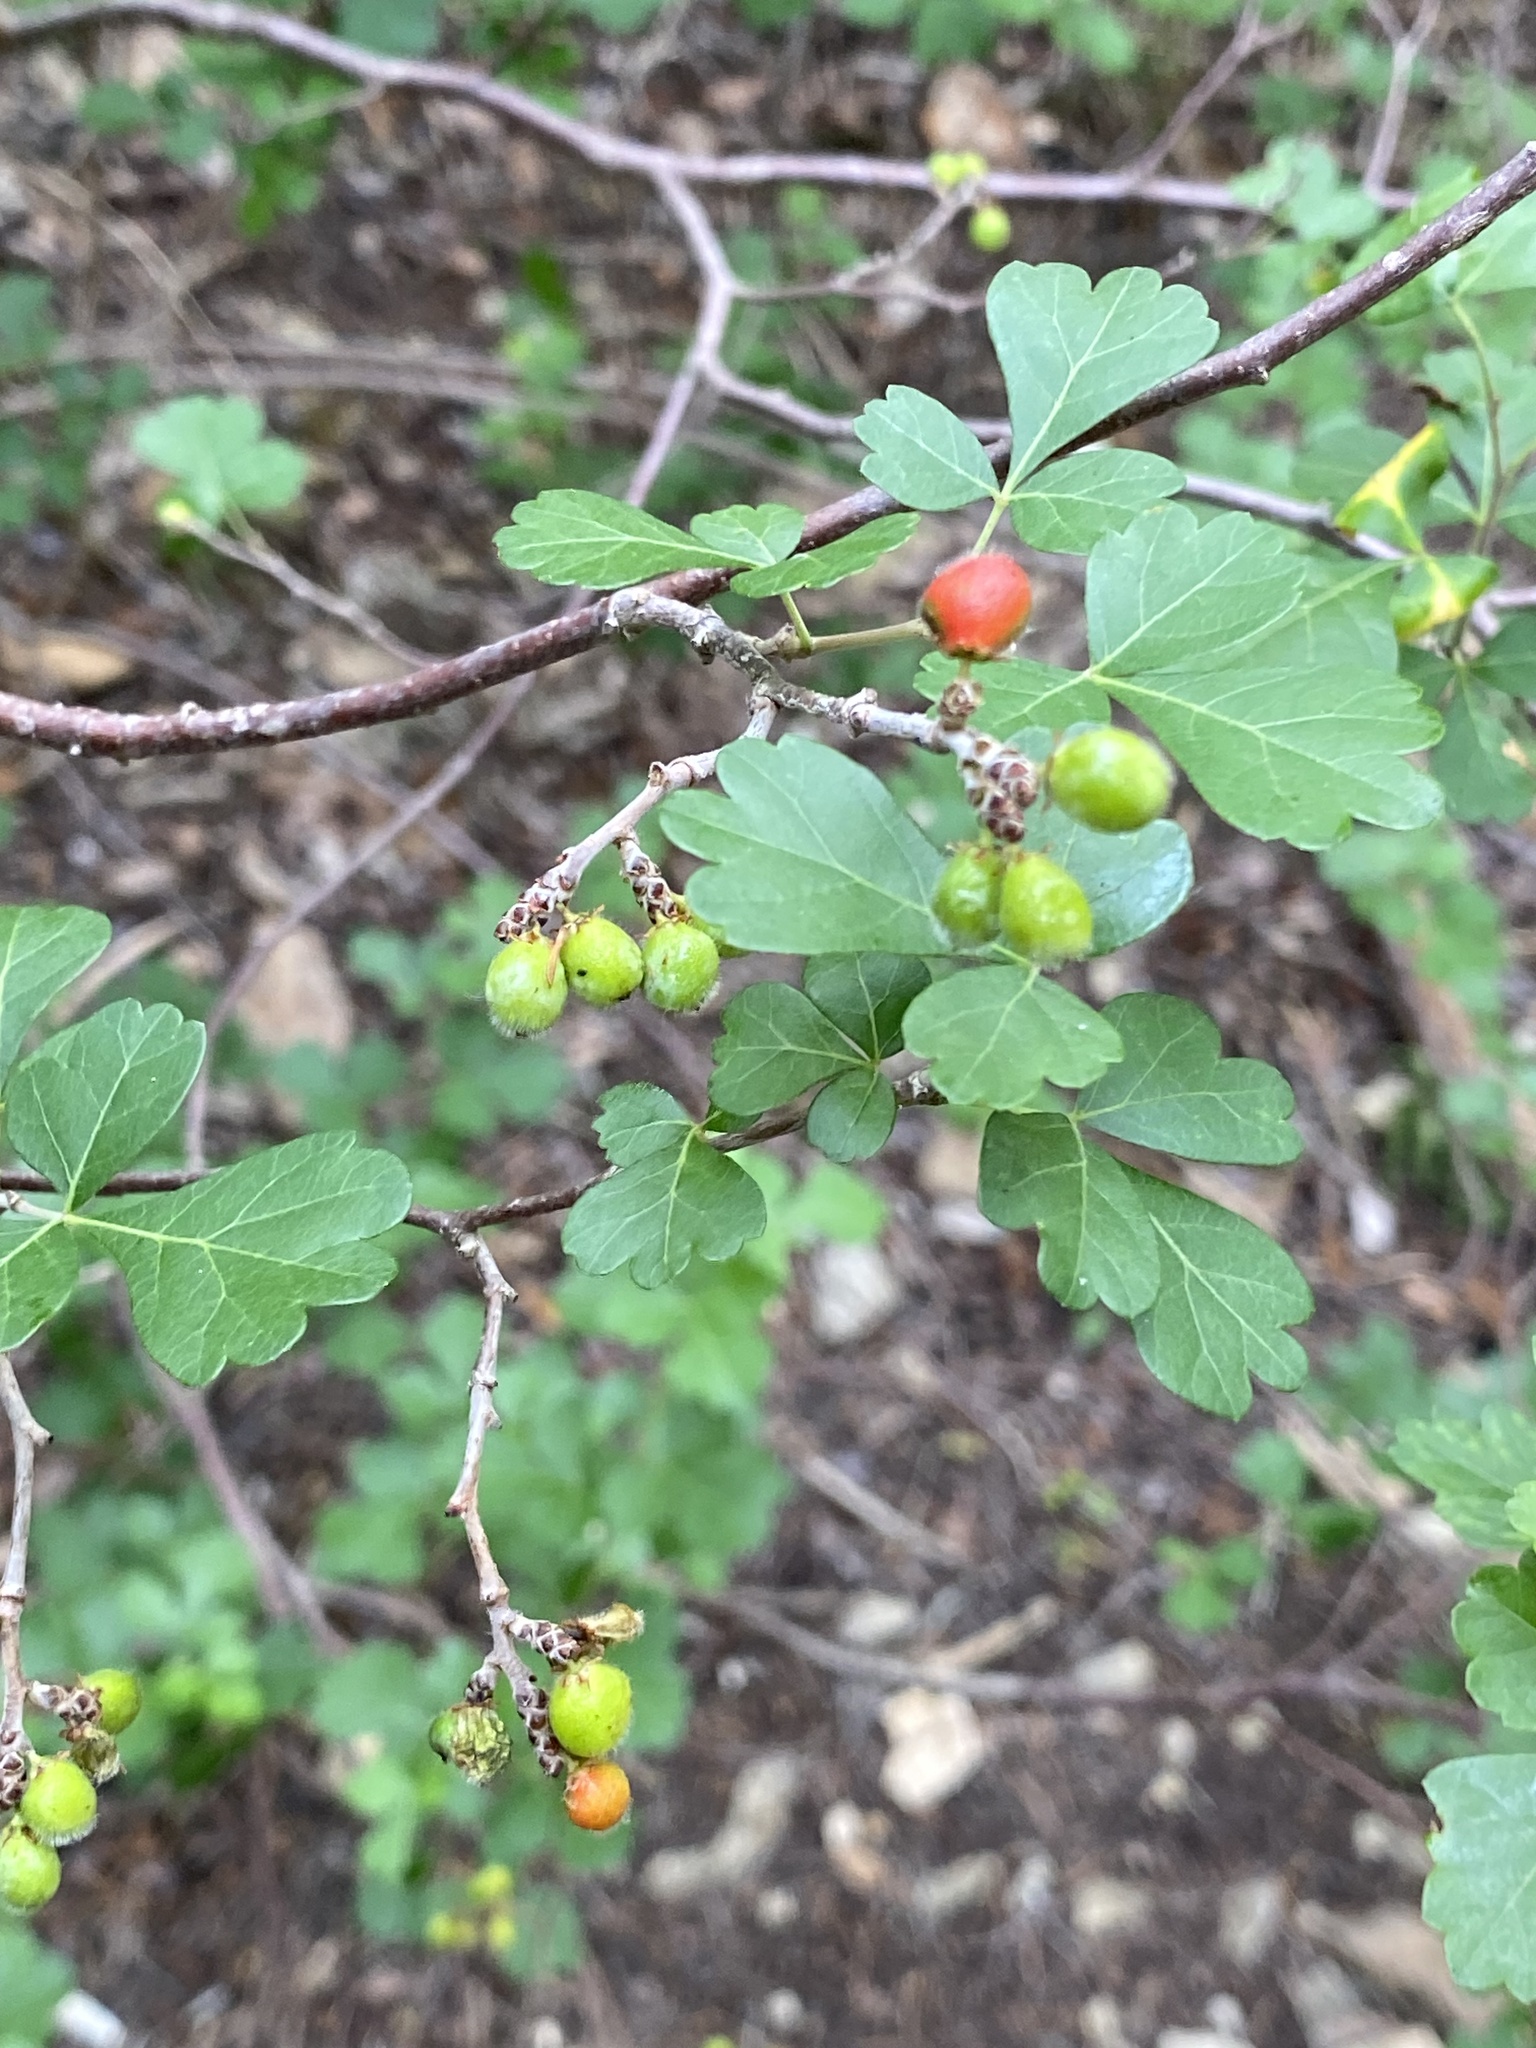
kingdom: Plantae
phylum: Tracheophyta
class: Magnoliopsida
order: Sapindales
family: Anacardiaceae
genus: Rhus
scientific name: Rhus aromatica
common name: Aromatic sumac
